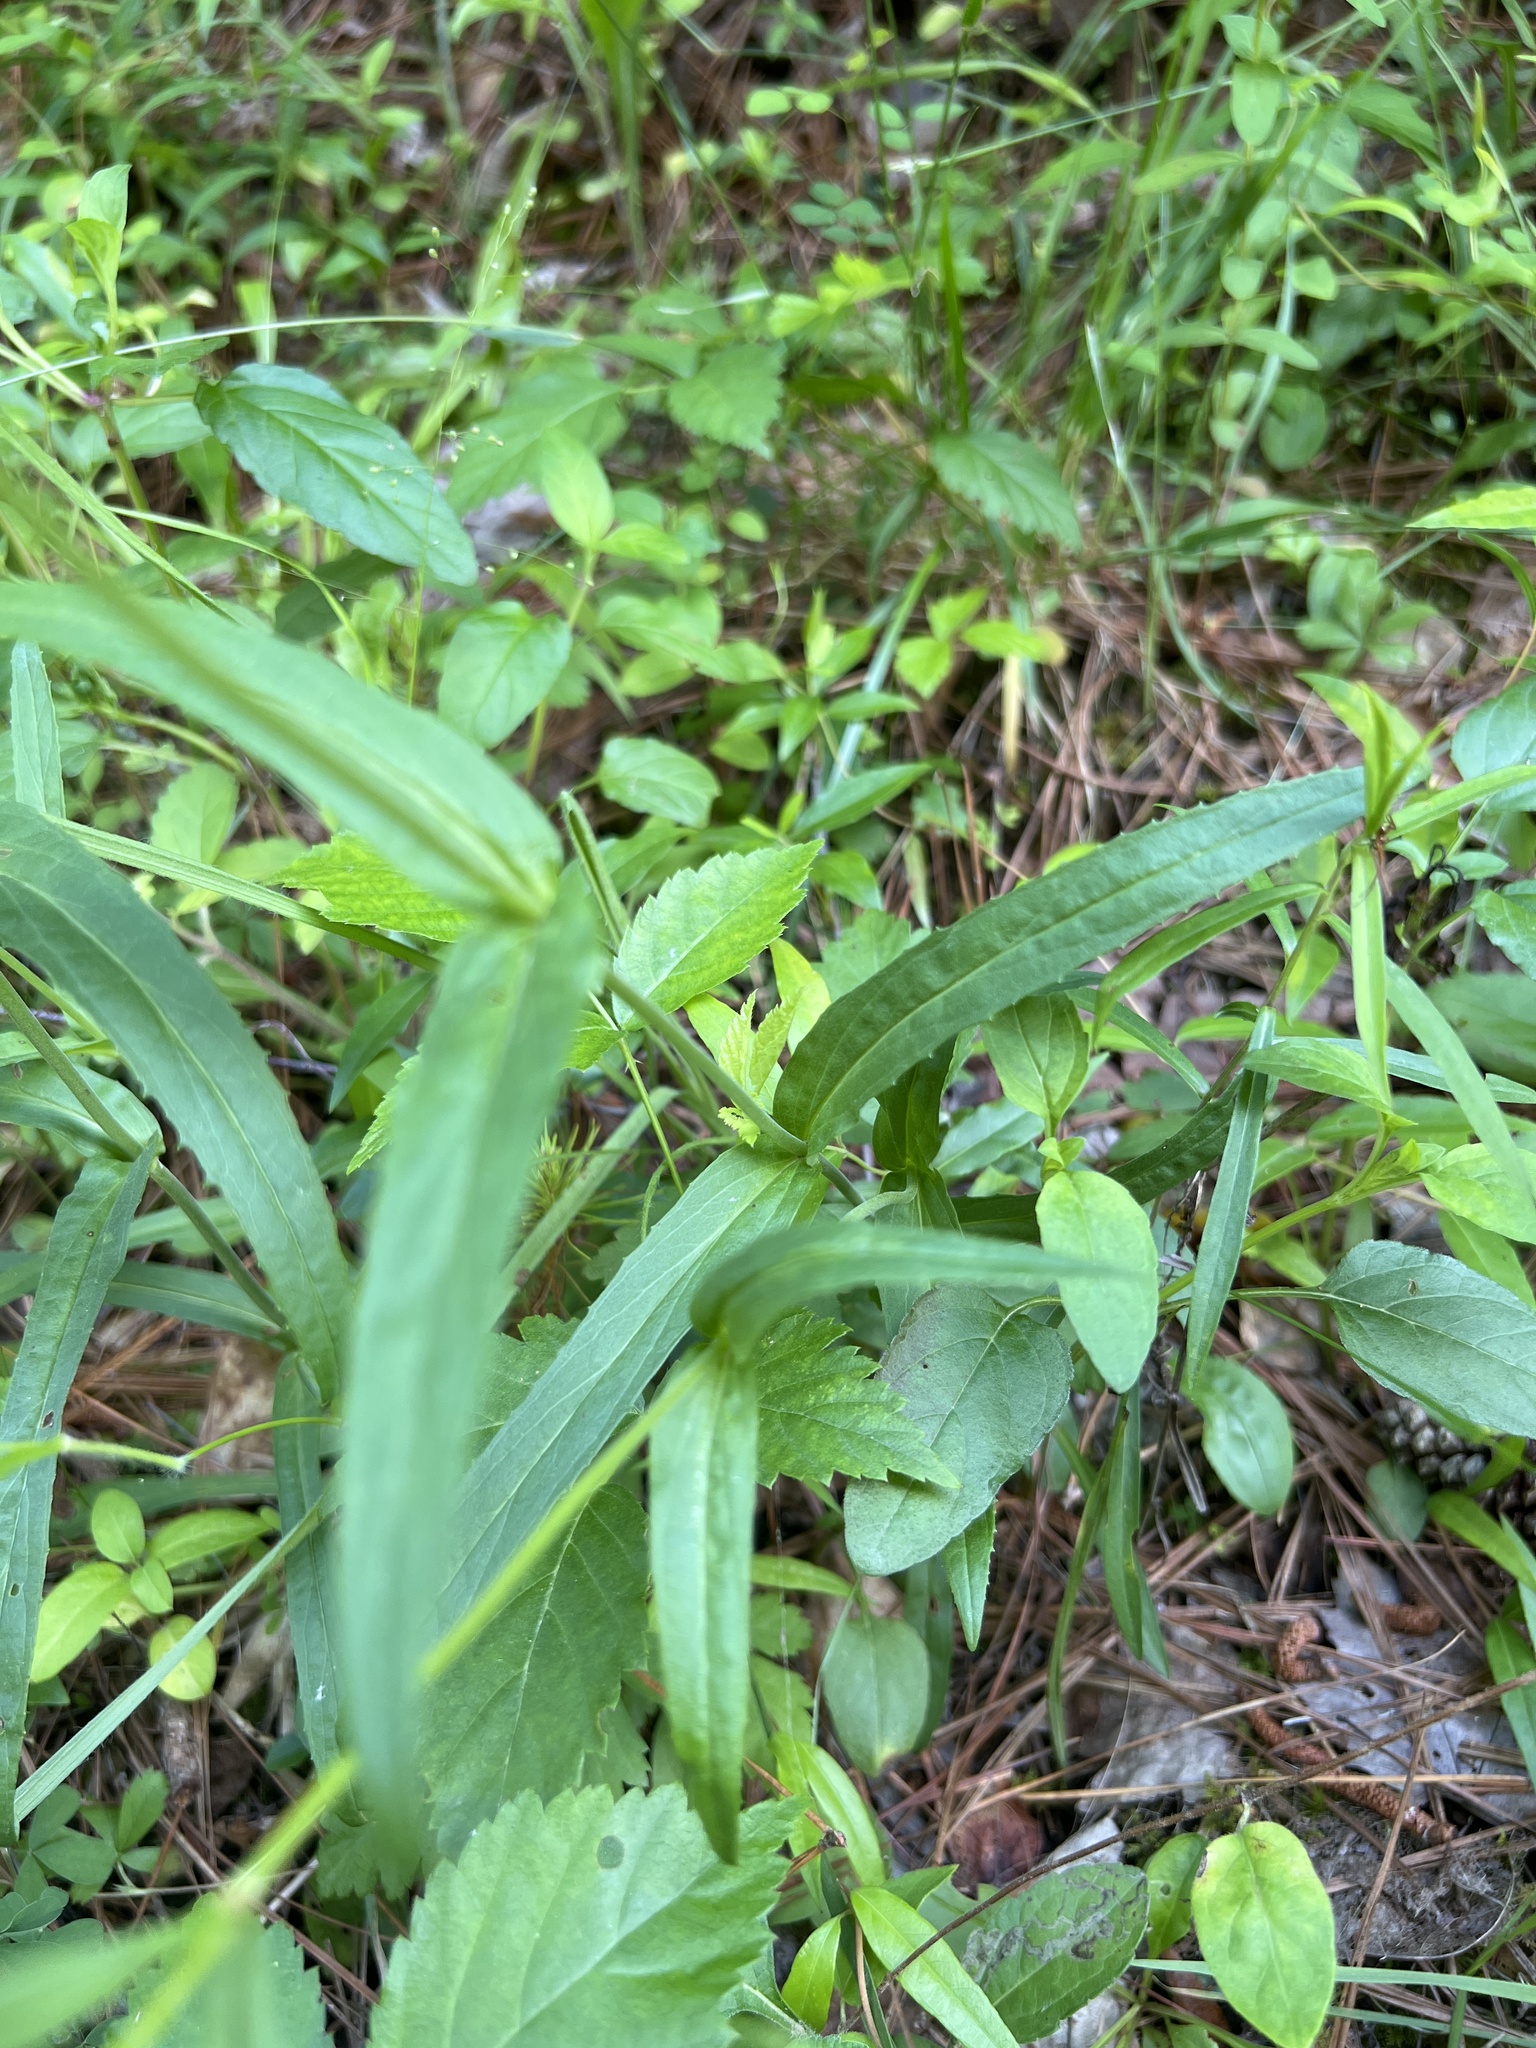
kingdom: Plantae
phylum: Tracheophyta
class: Magnoliopsida
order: Lamiales
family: Plantaginaceae
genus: Penstemon
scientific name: Penstemon laevigatus
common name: Eastern beardtongue
